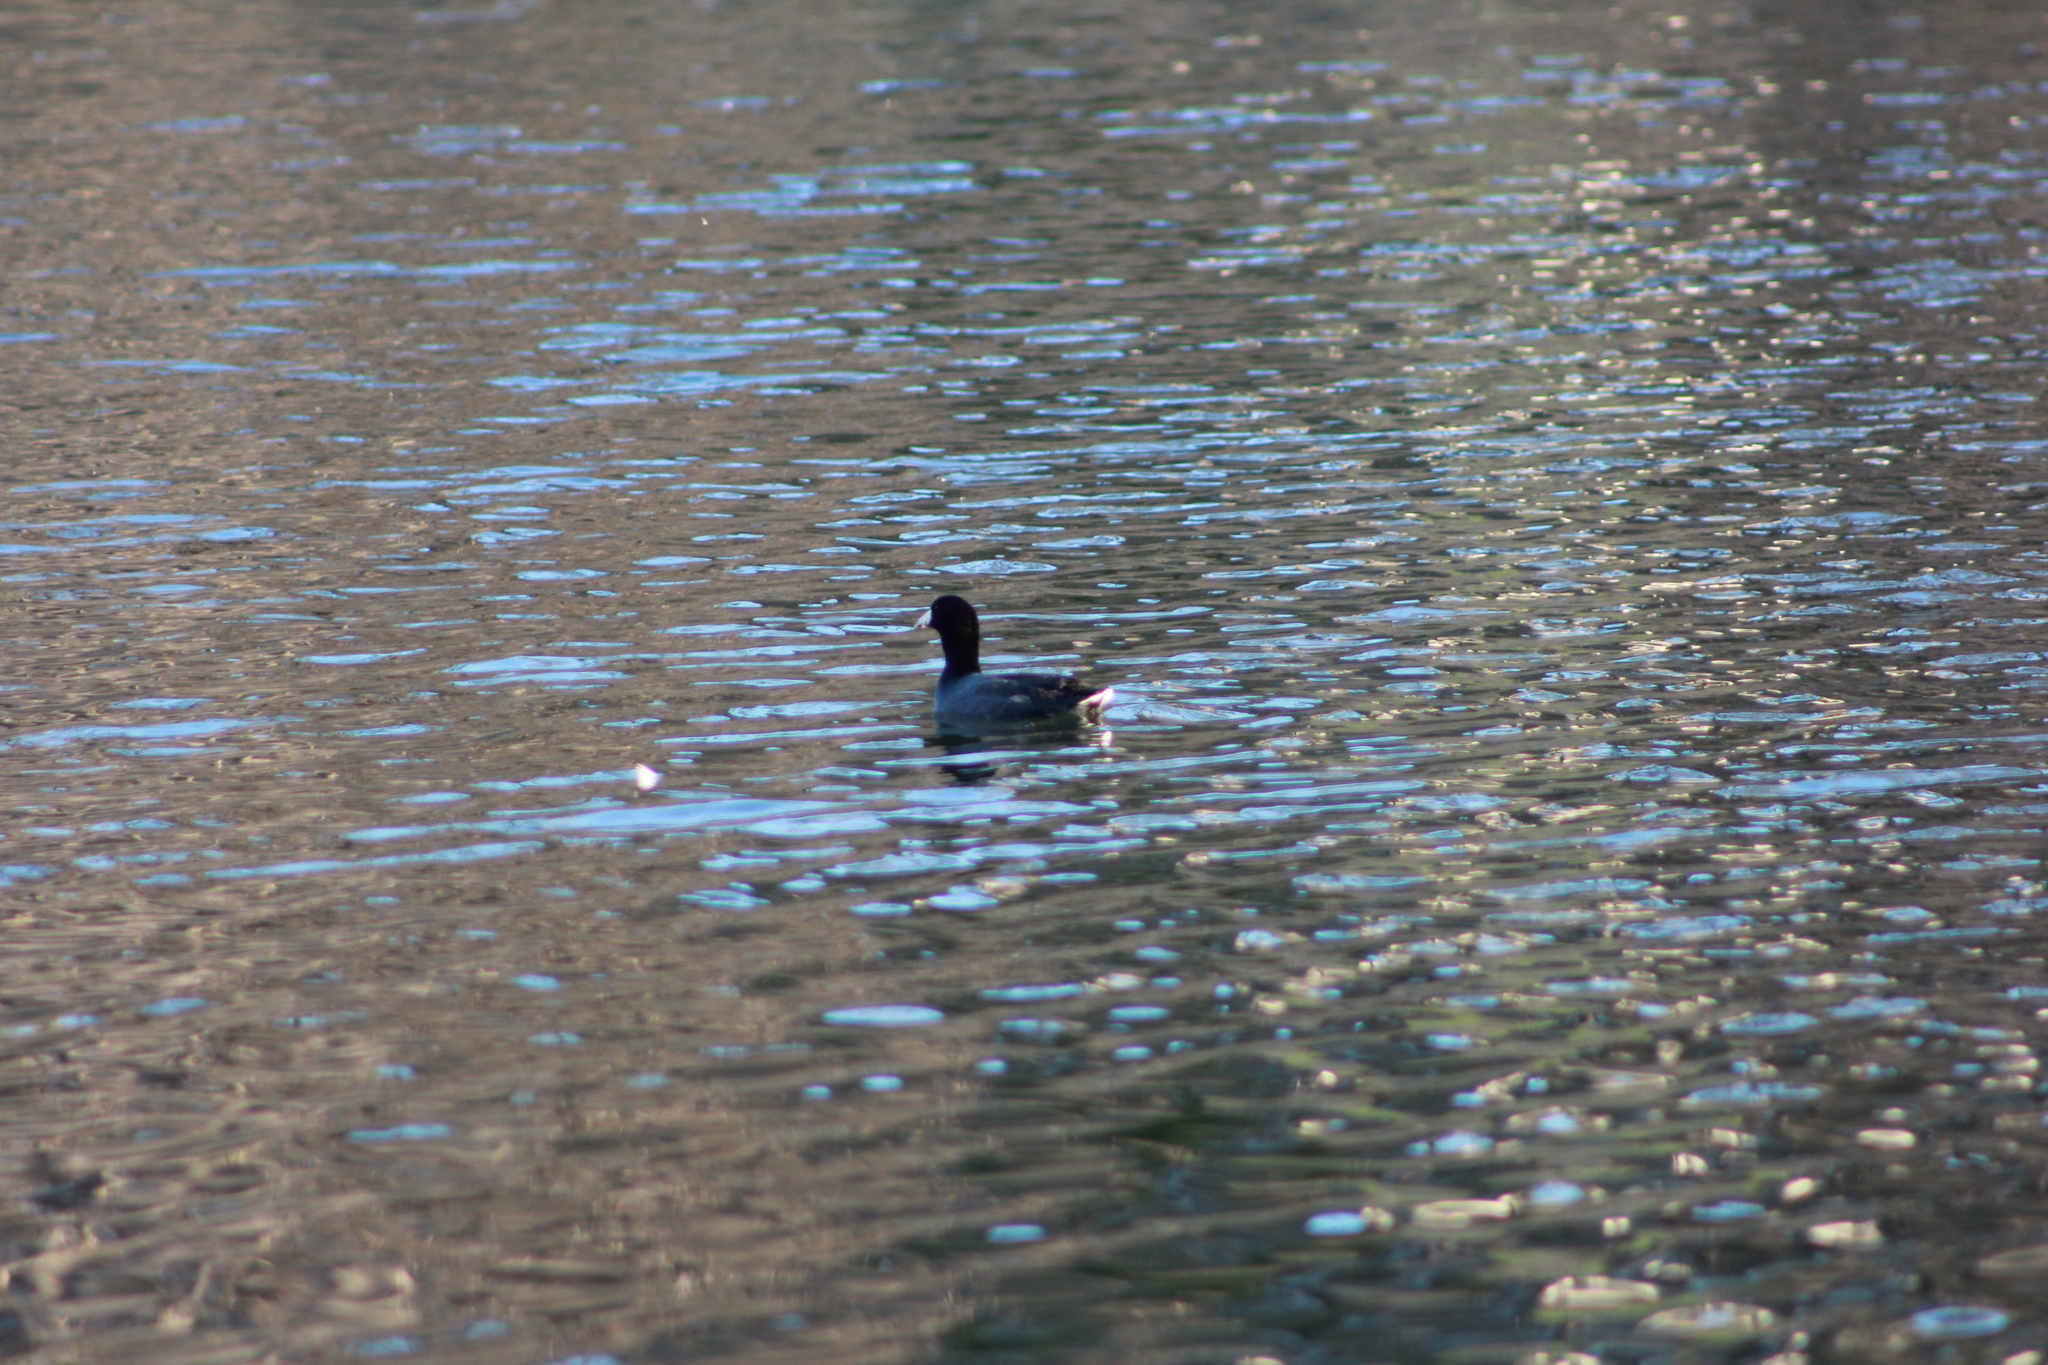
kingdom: Animalia
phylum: Chordata
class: Aves
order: Gruiformes
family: Rallidae
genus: Fulica
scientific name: Fulica americana
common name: American coot
